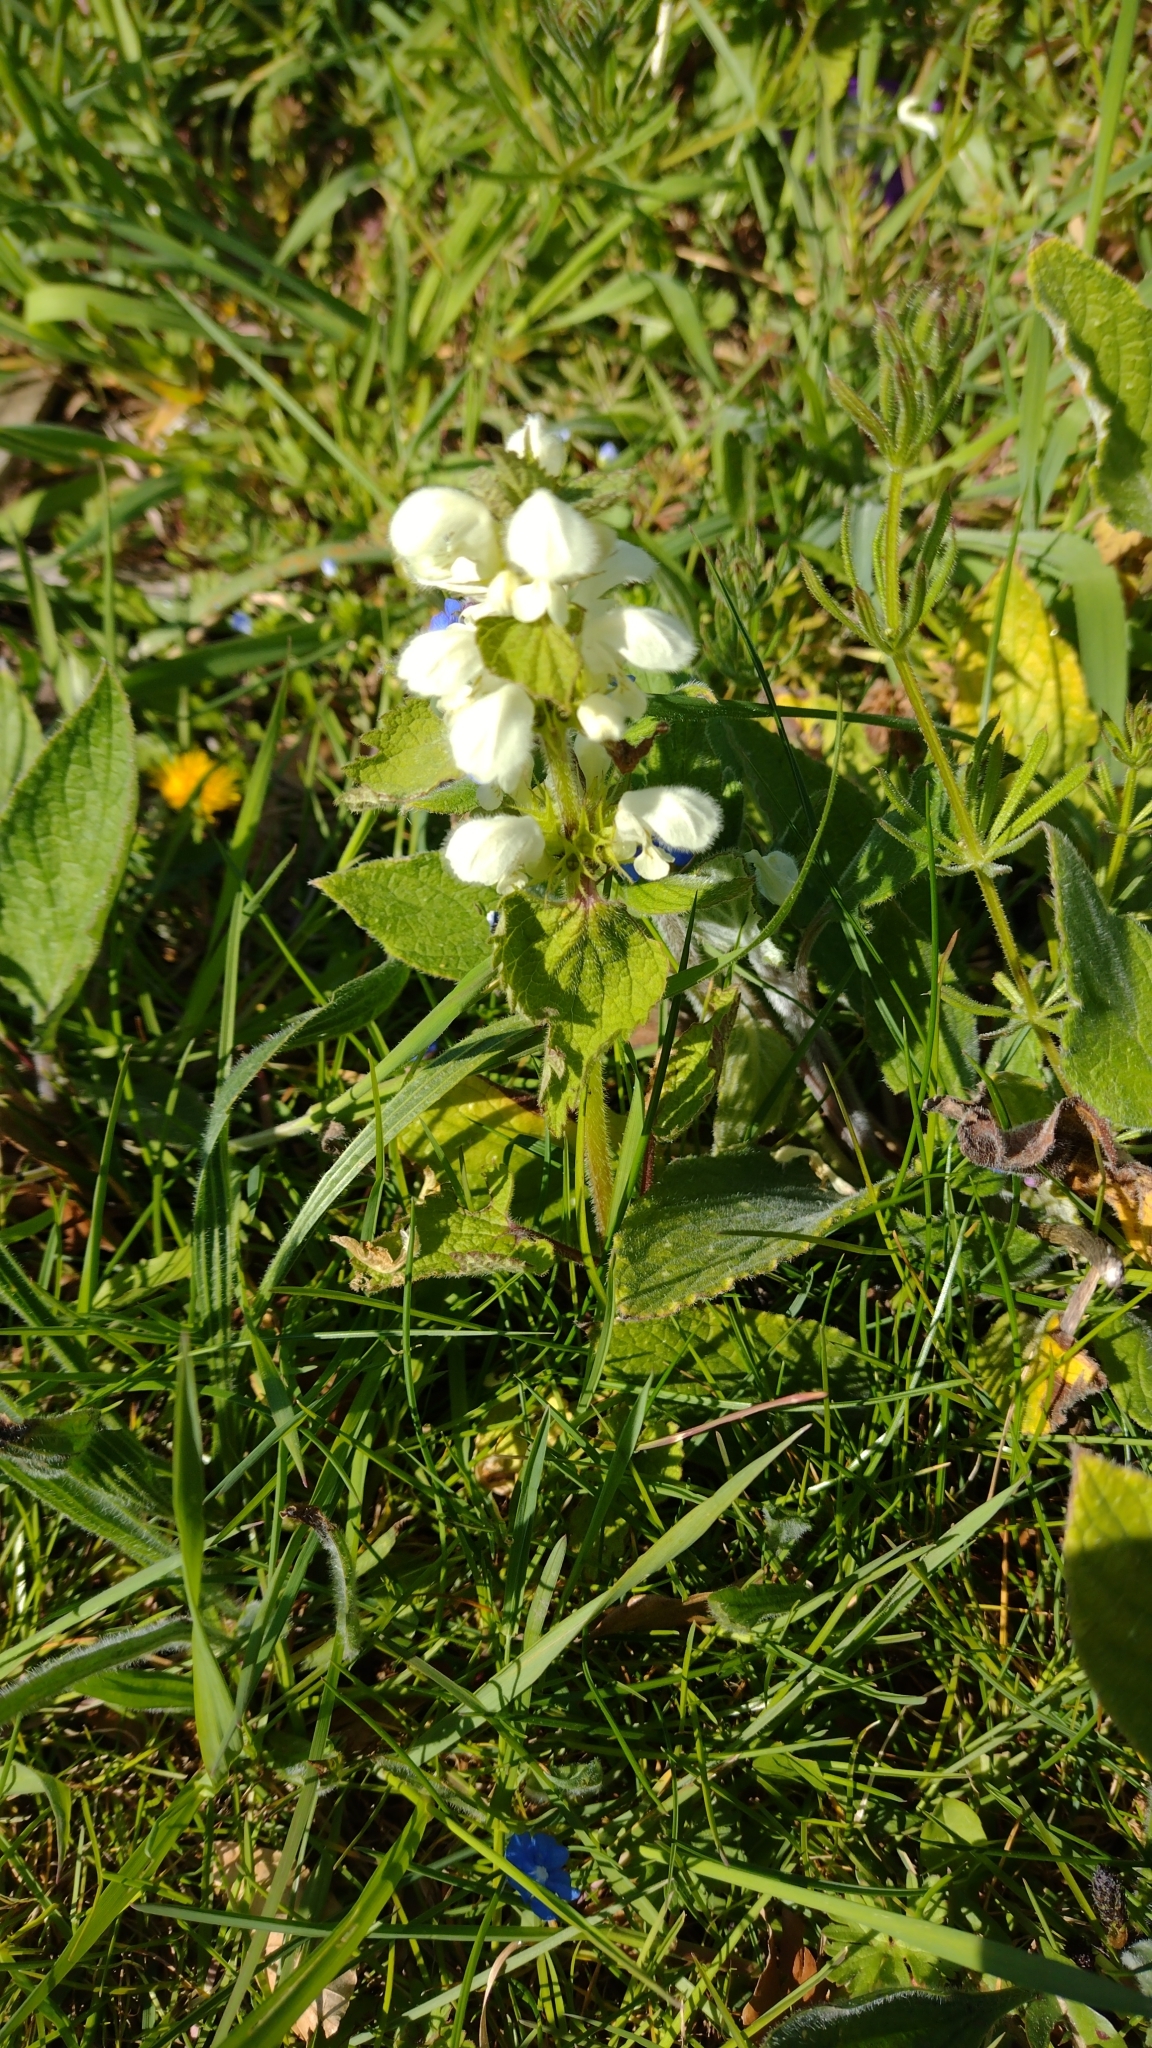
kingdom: Plantae
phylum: Tracheophyta
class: Magnoliopsida
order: Lamiales
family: Lamiaceae
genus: Lamium
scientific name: Lamium album
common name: White dead-nettle
